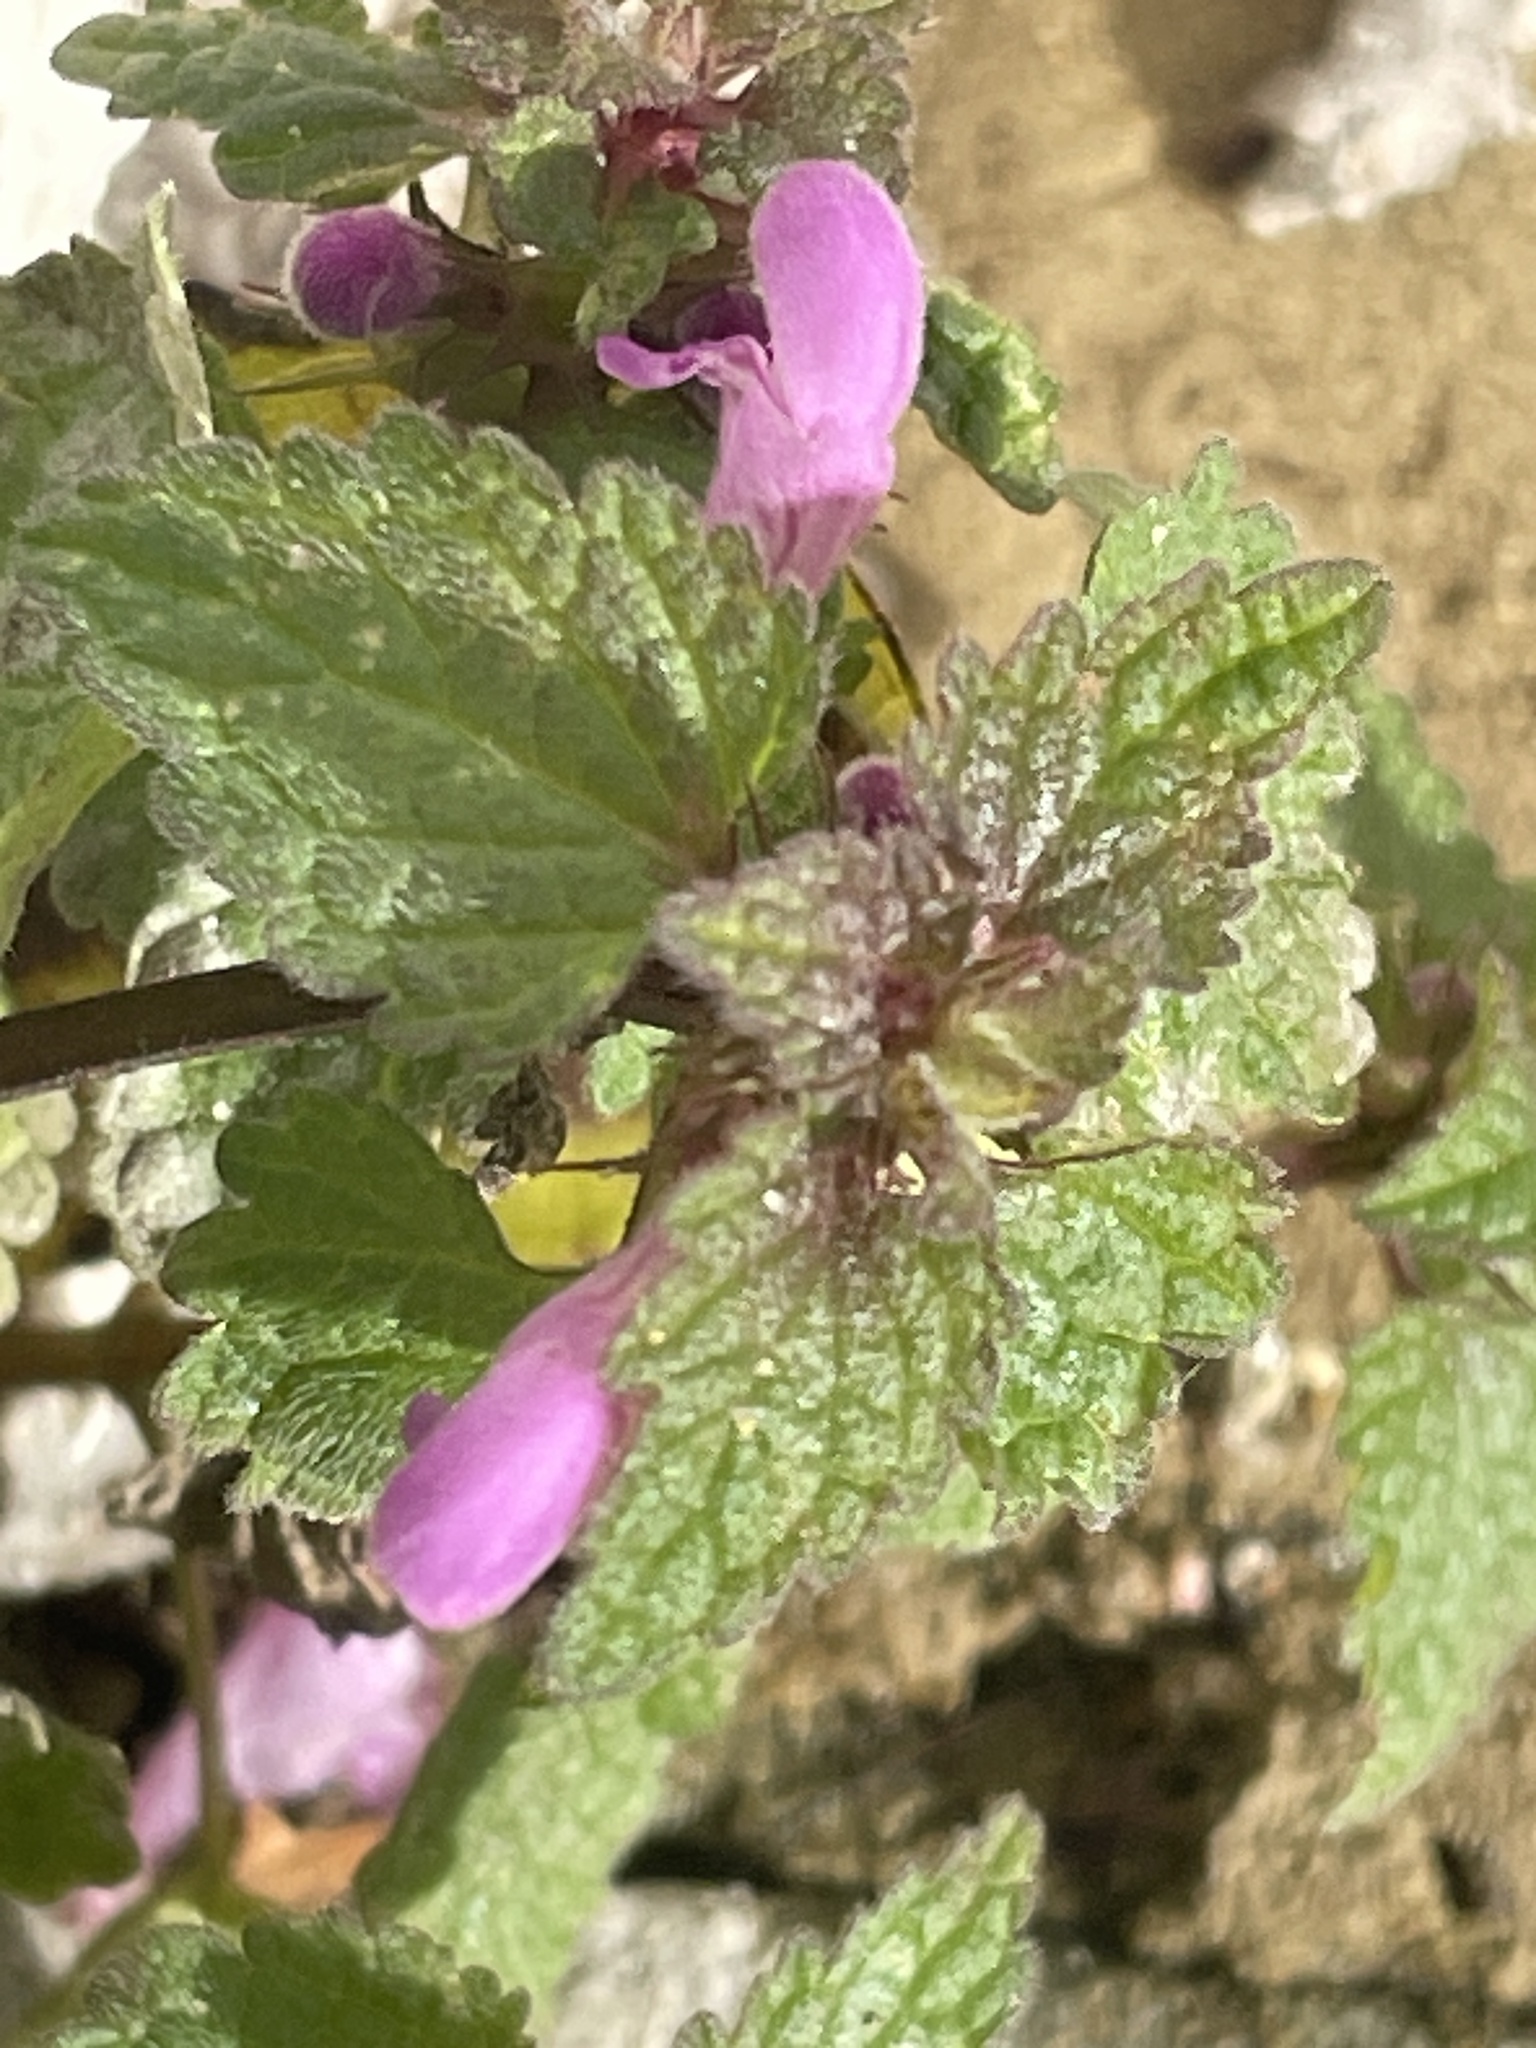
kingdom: Plantae
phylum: Tracheophyta
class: Magnoliopsida
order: Lamiales
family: Lamiaceae
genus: Lamium
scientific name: Lamium purpureum
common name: Red dead-nettle
